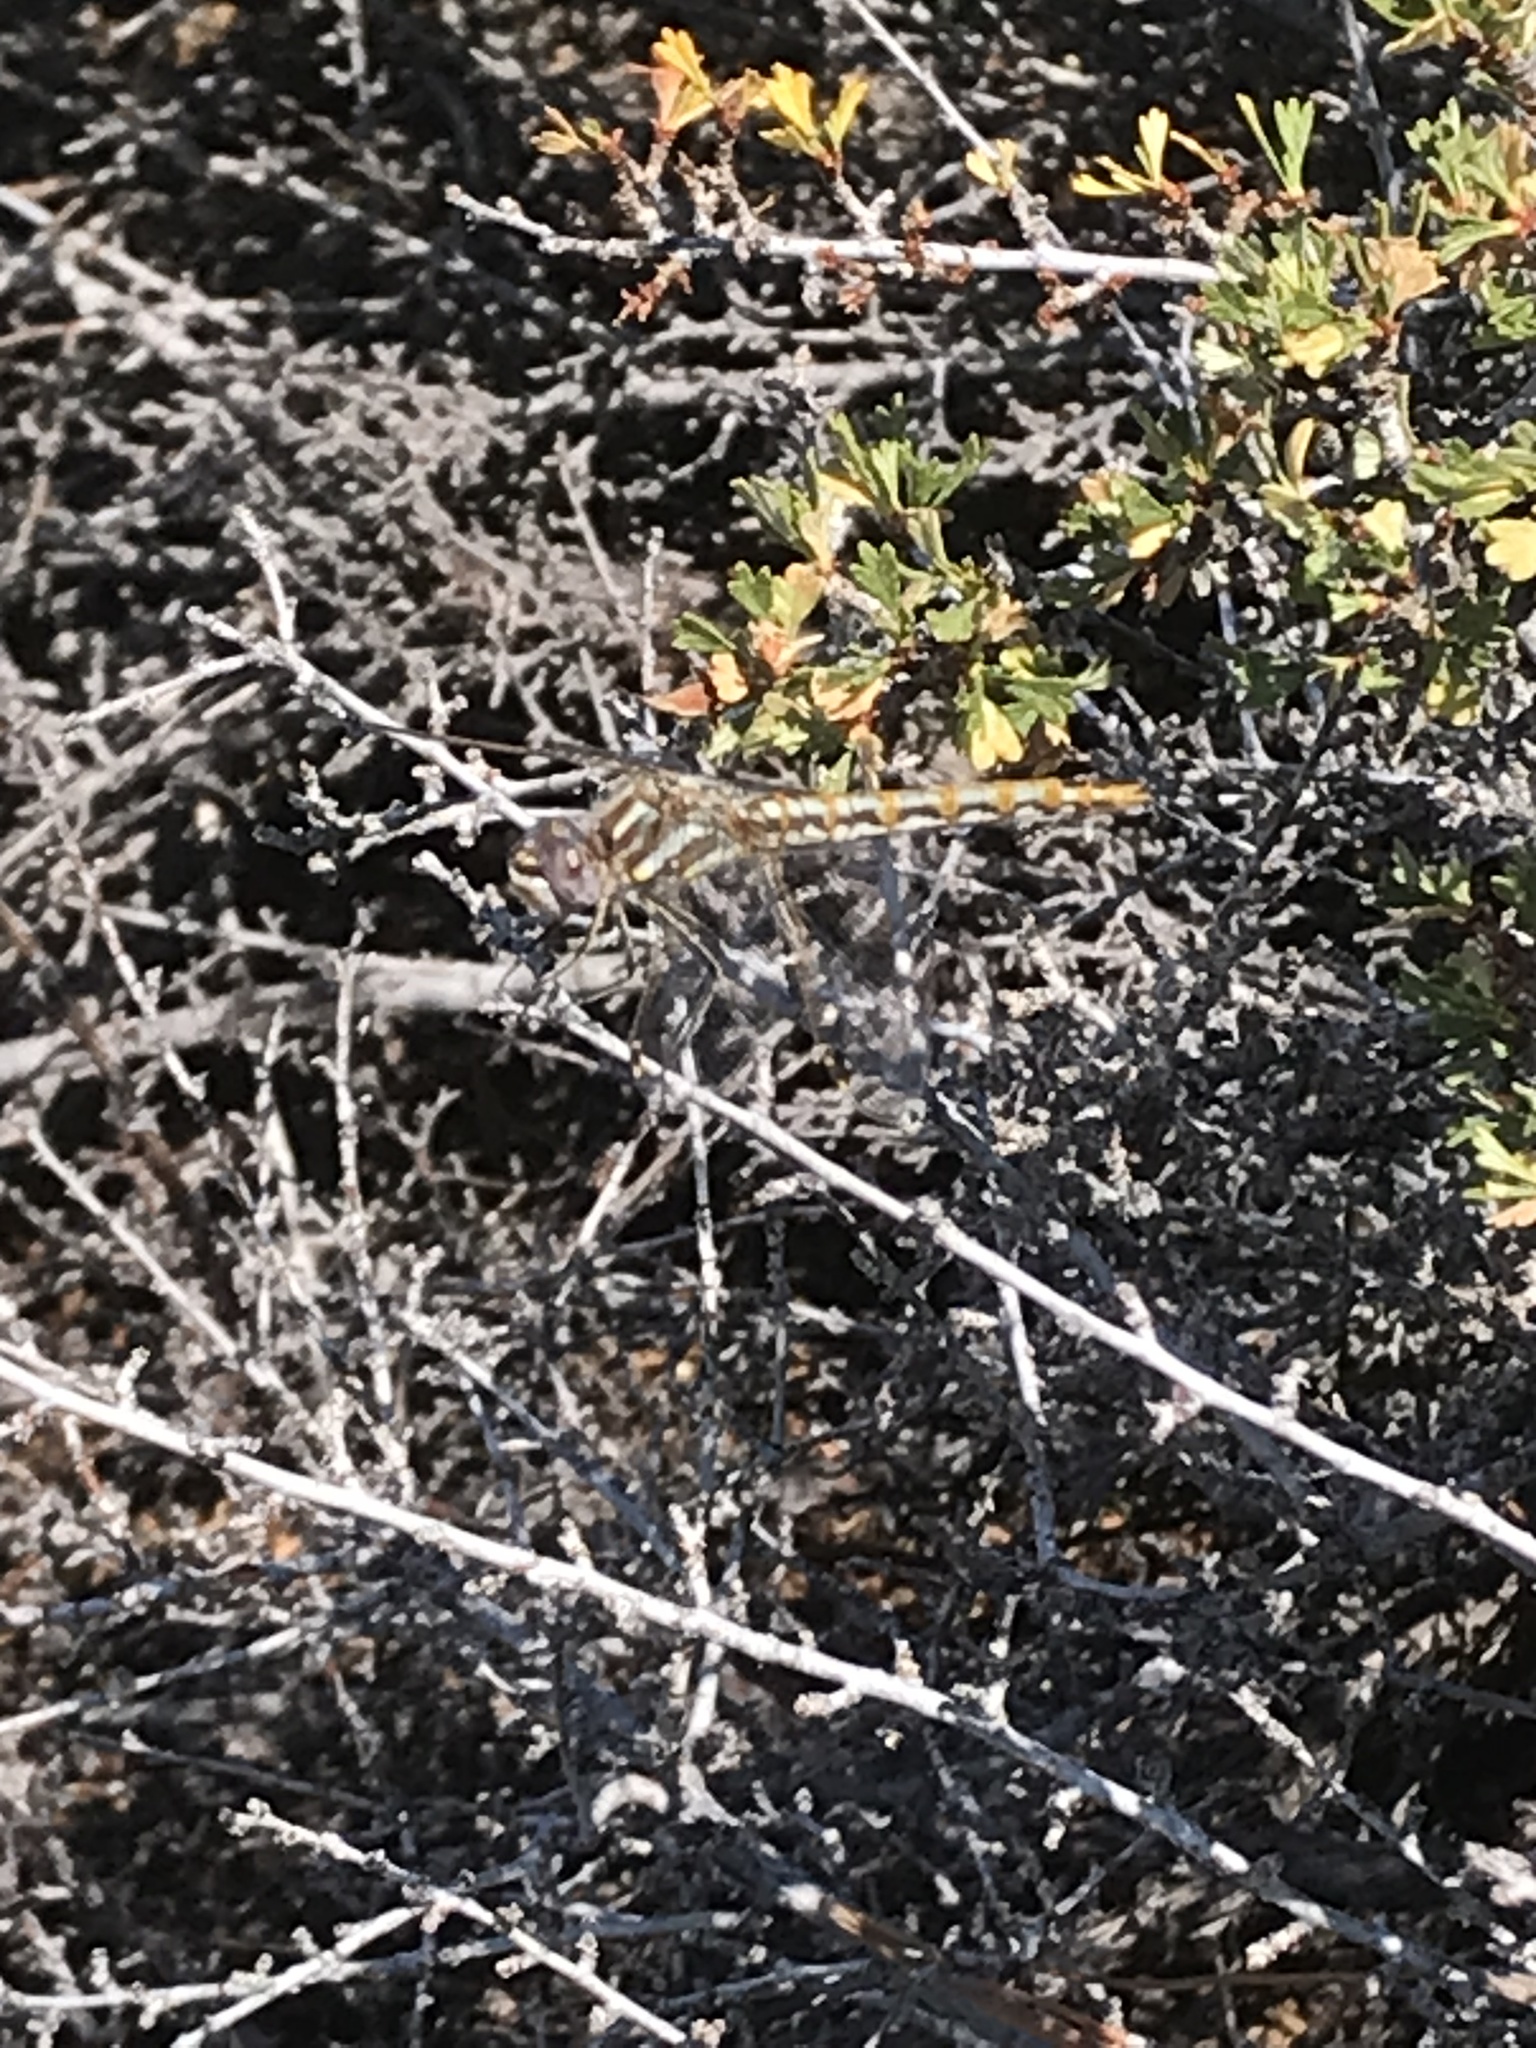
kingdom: Animalia
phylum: Arthropoda
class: Insecta
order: Odonata
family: Libellulidae
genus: Sympetrum
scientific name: Sympetrum corruptum
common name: Variegated meadowhawk
